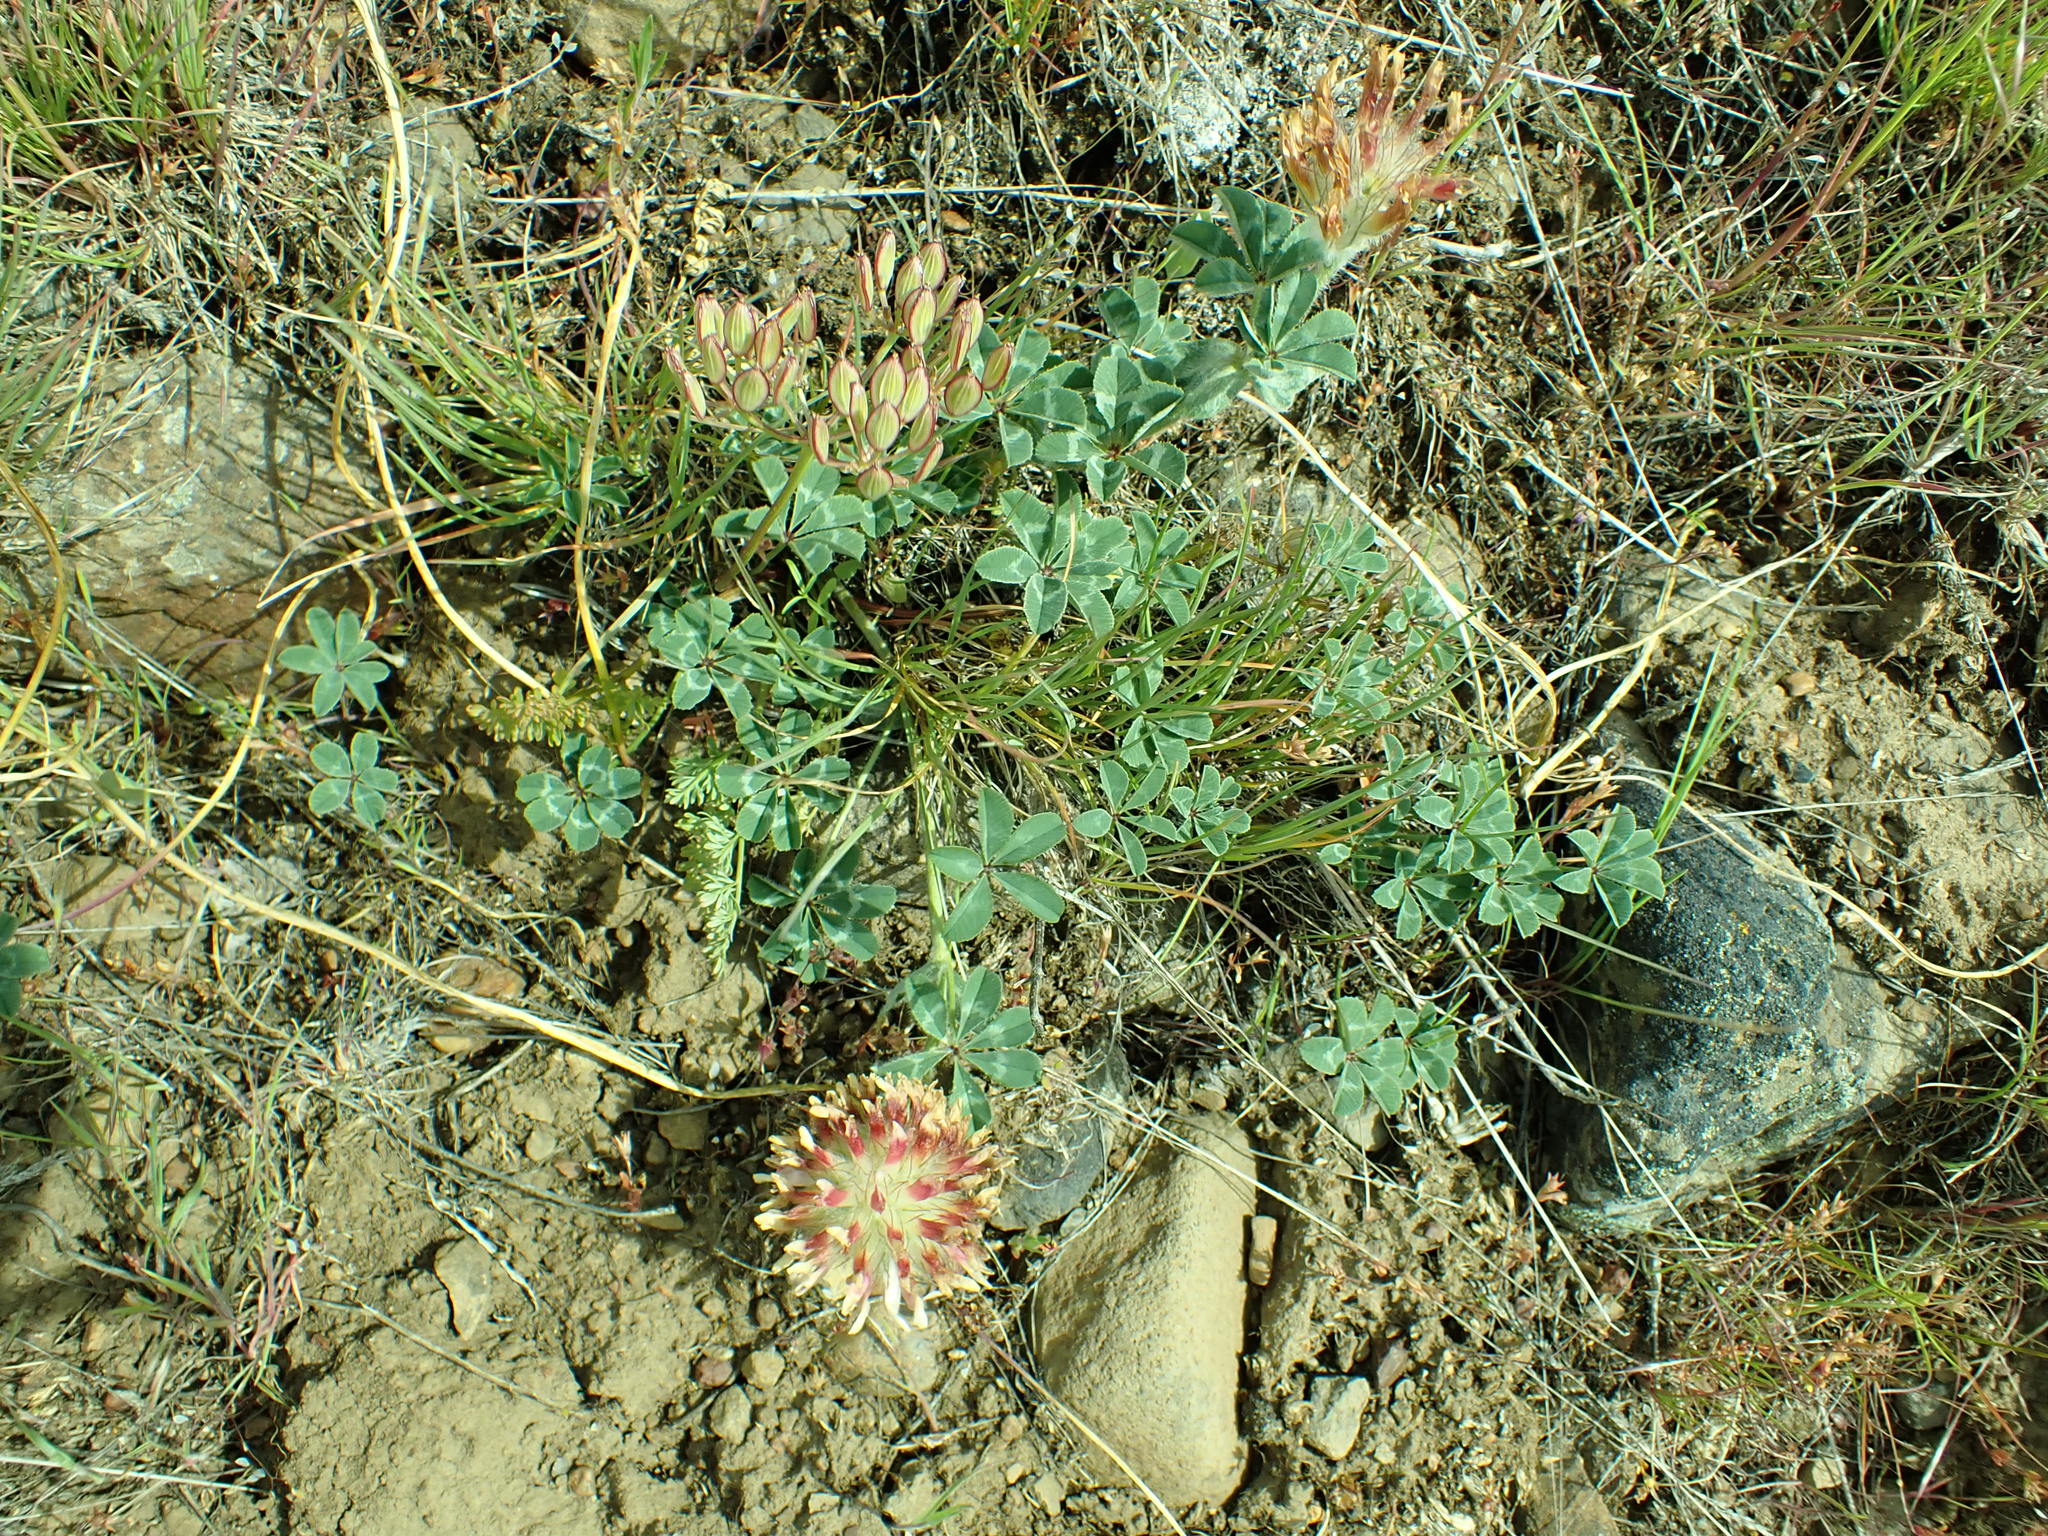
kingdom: Plantae
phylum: Tracheophyta
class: Magnoliopsida
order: Fabales
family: Fabaceae
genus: Trifolium
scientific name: Trifolium macrocephalum
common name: Large-head clover
